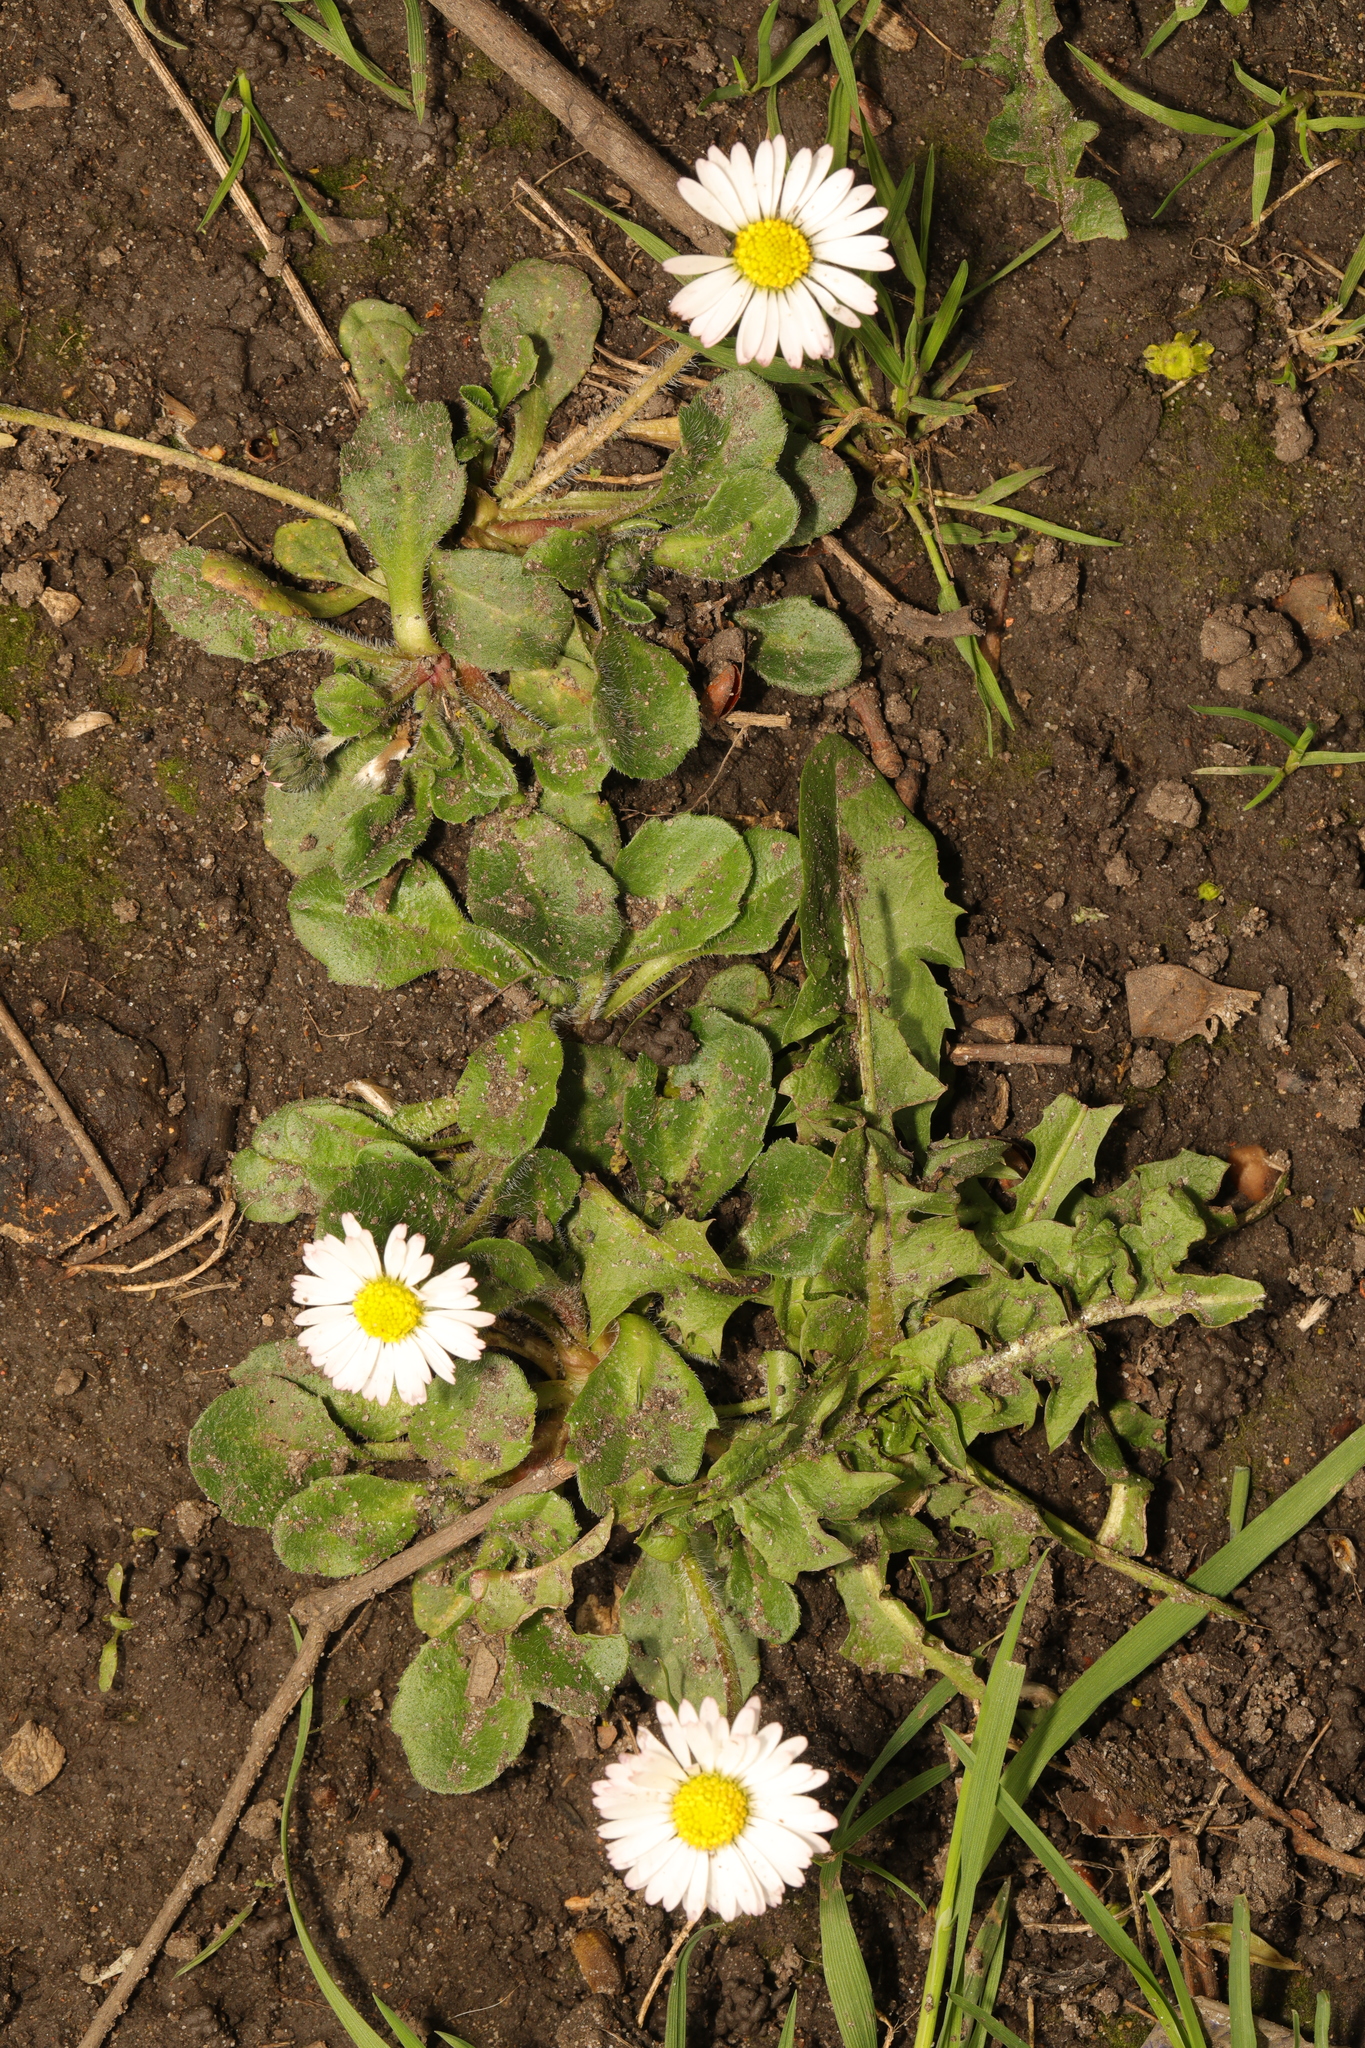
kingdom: Plantae
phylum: Tracheophyta
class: Magnoliopsida
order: Asterales
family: Asteraceae
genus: Bellis
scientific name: Bellis perennis
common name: Lawndaisy
